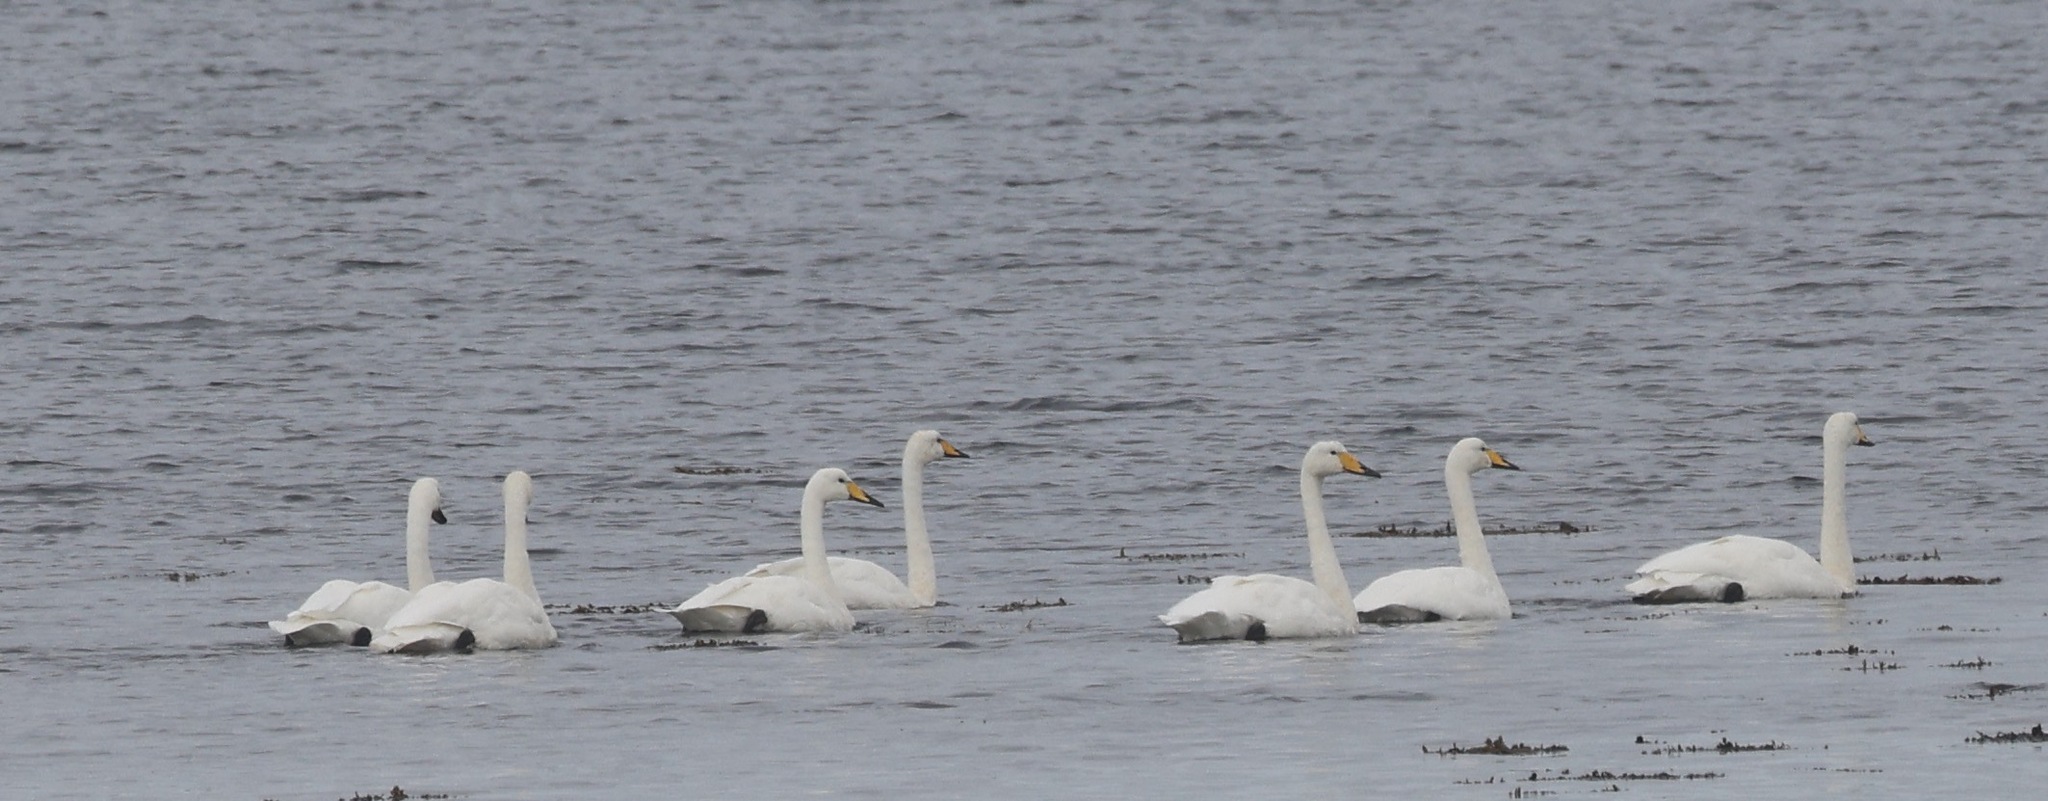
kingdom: Animalia
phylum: Chordata
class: Aves
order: Anseriformes
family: Anatidae
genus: Cygnus
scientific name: Cygnus cygnus
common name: Whooper swan
